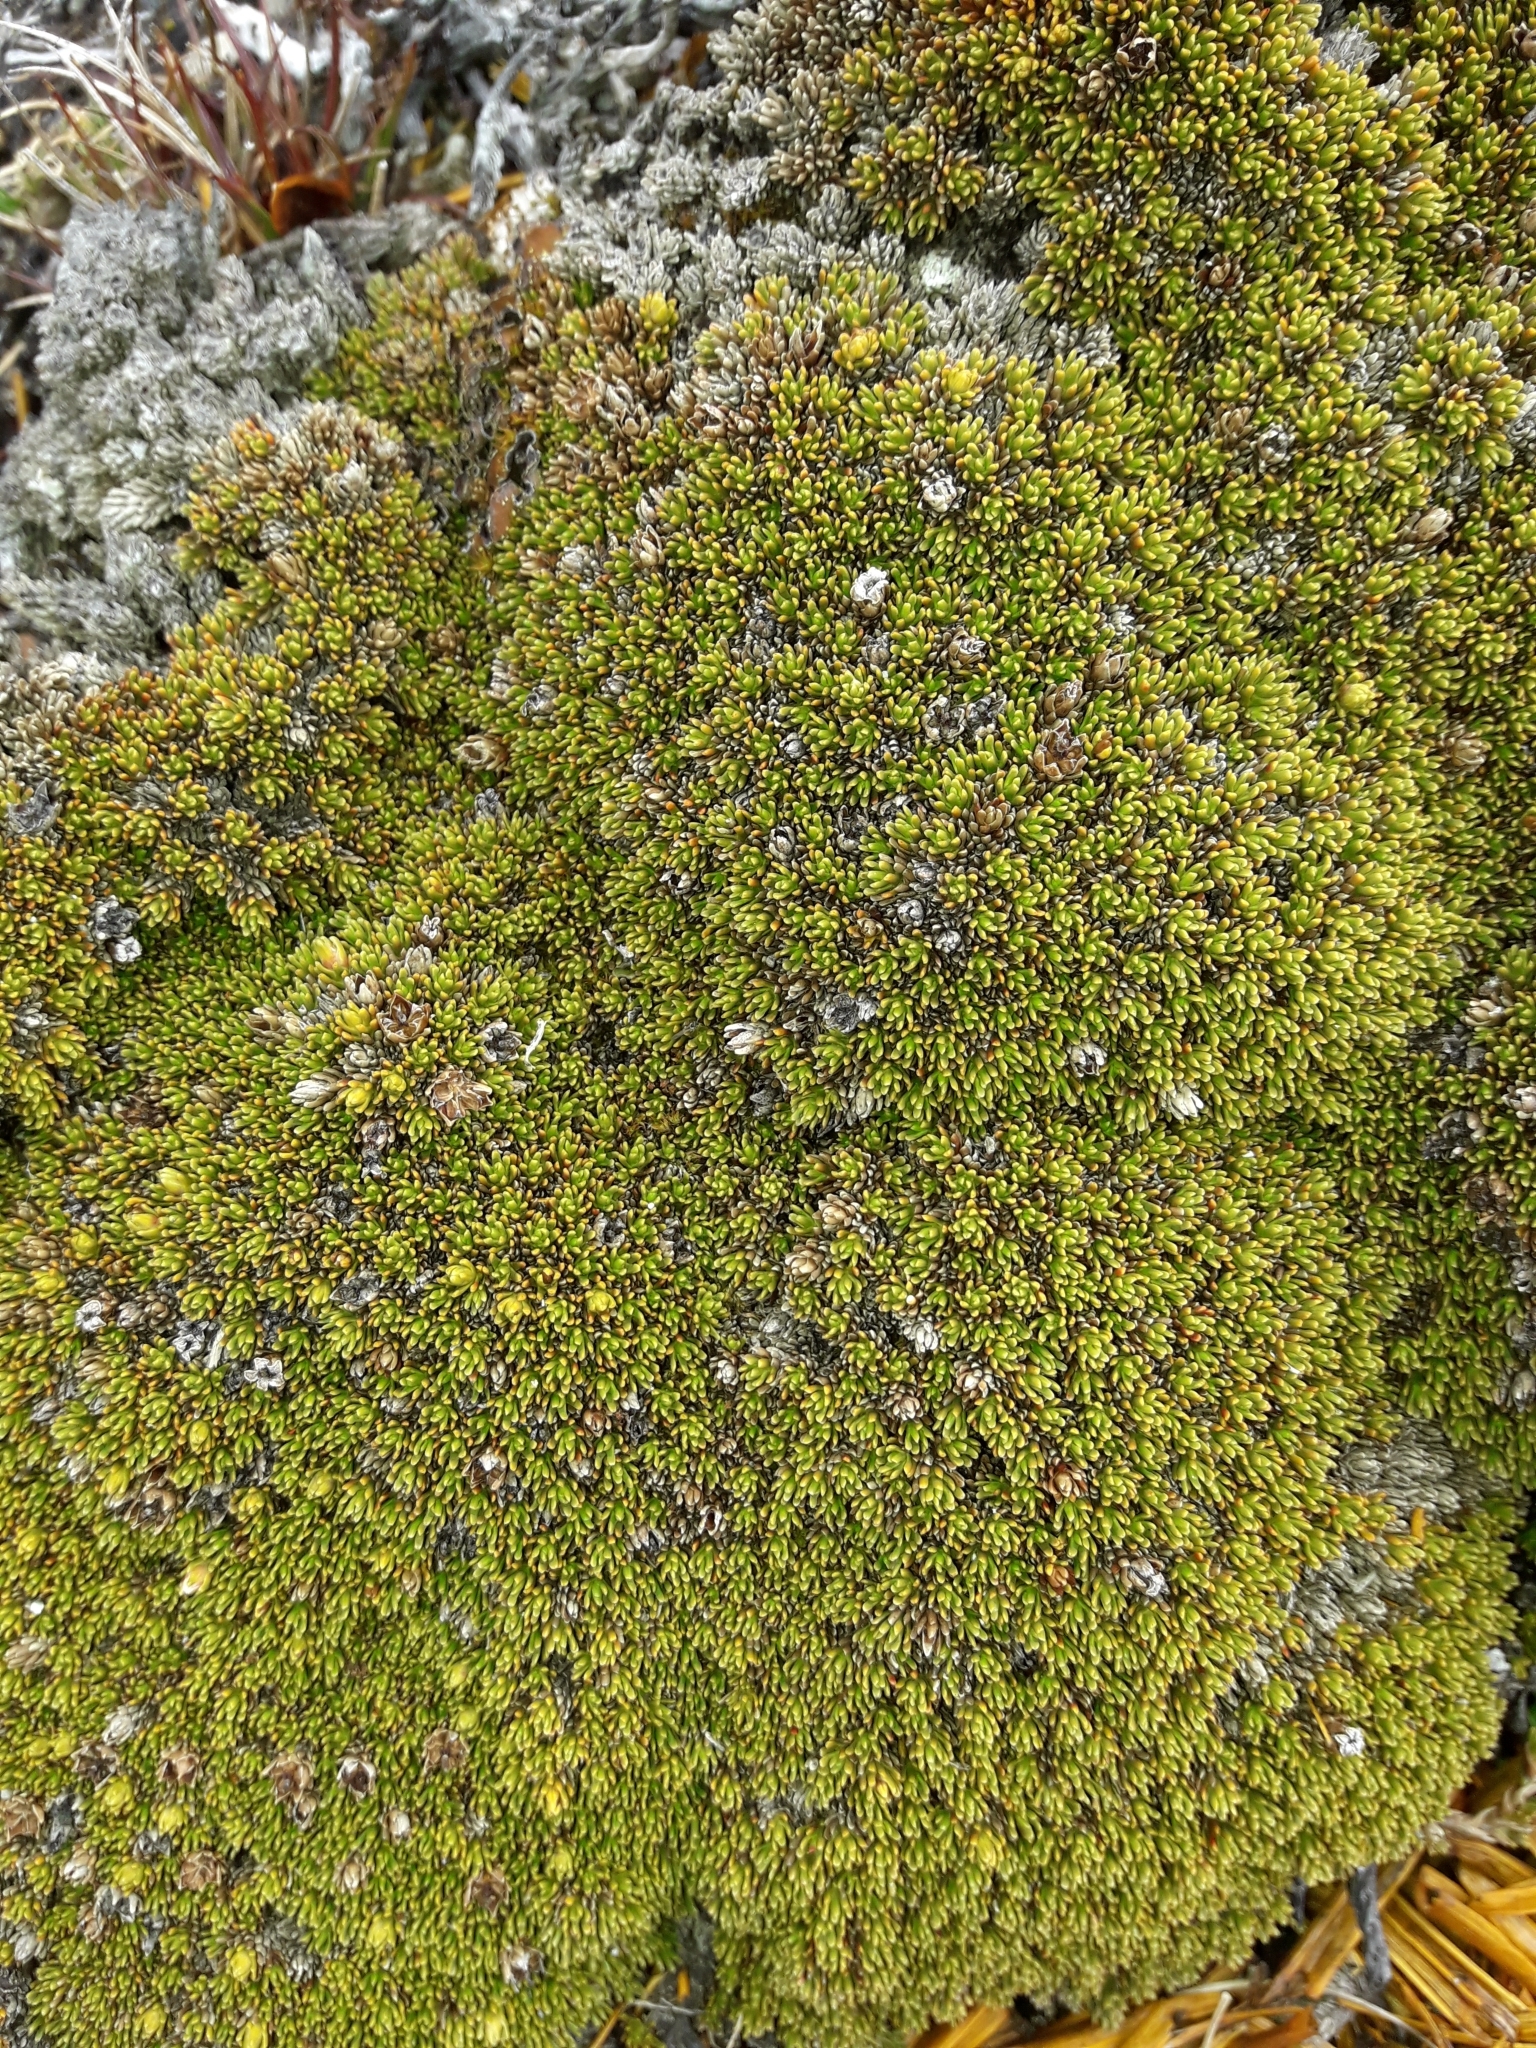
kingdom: Plantae
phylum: Tracheophyta
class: Magnoliopsida
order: Ericales
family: Ericaceae
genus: Dracophyllum
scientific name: Dracophyllum muscoides
